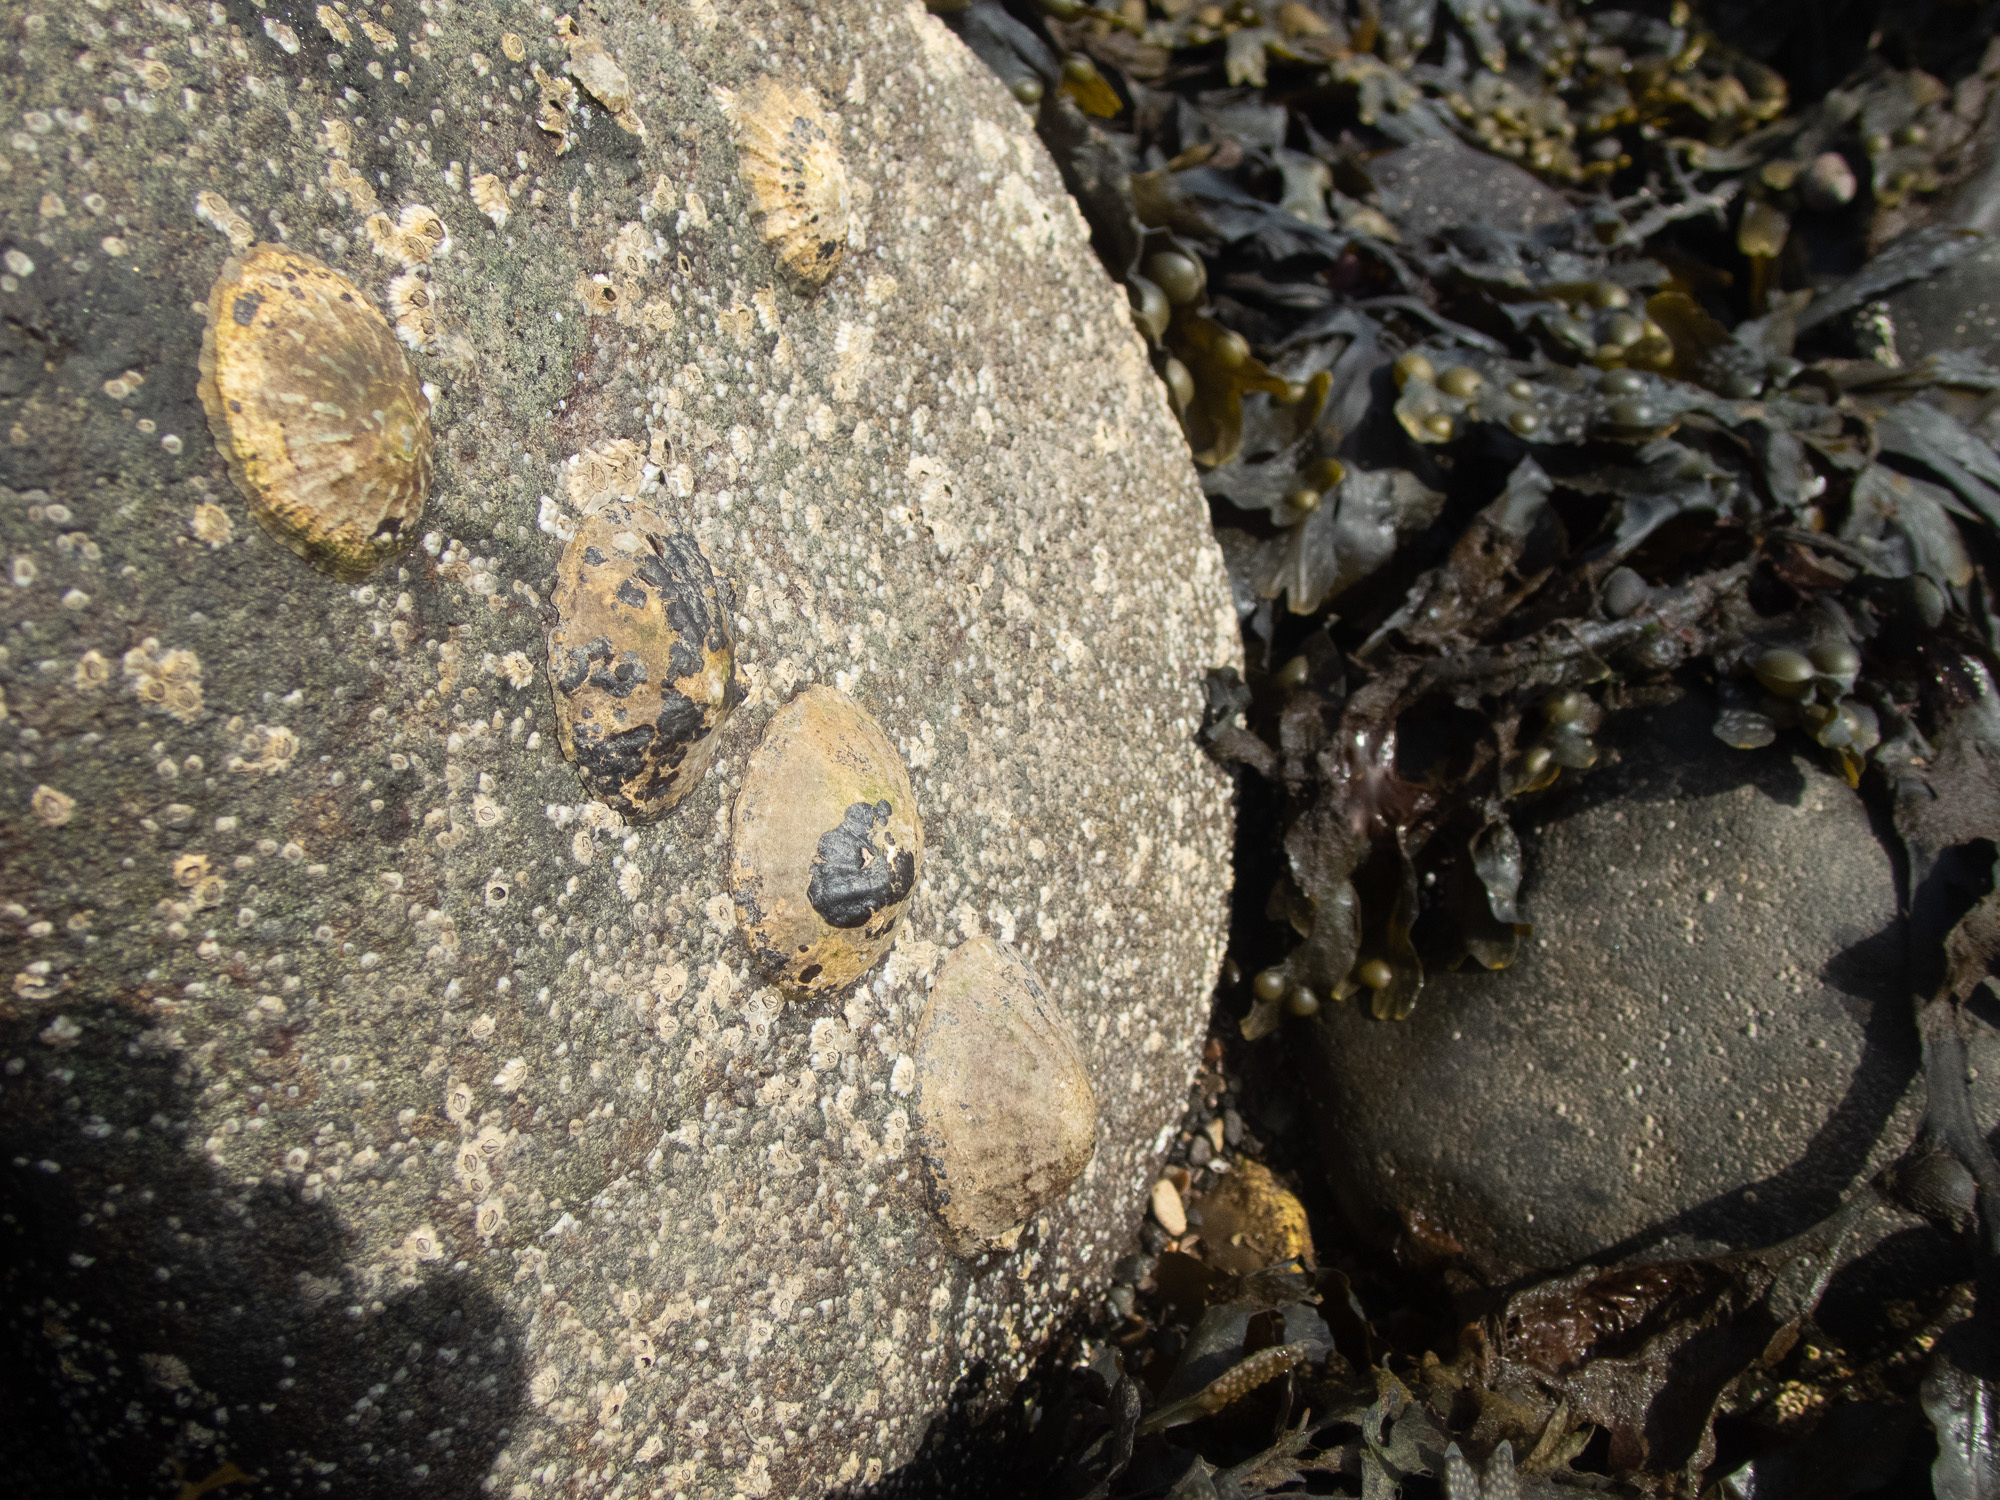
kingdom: Animalia
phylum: Mollusca
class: Gastropoda
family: Patellidae
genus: Patella
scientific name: Patella vulgata
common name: Common limpet
